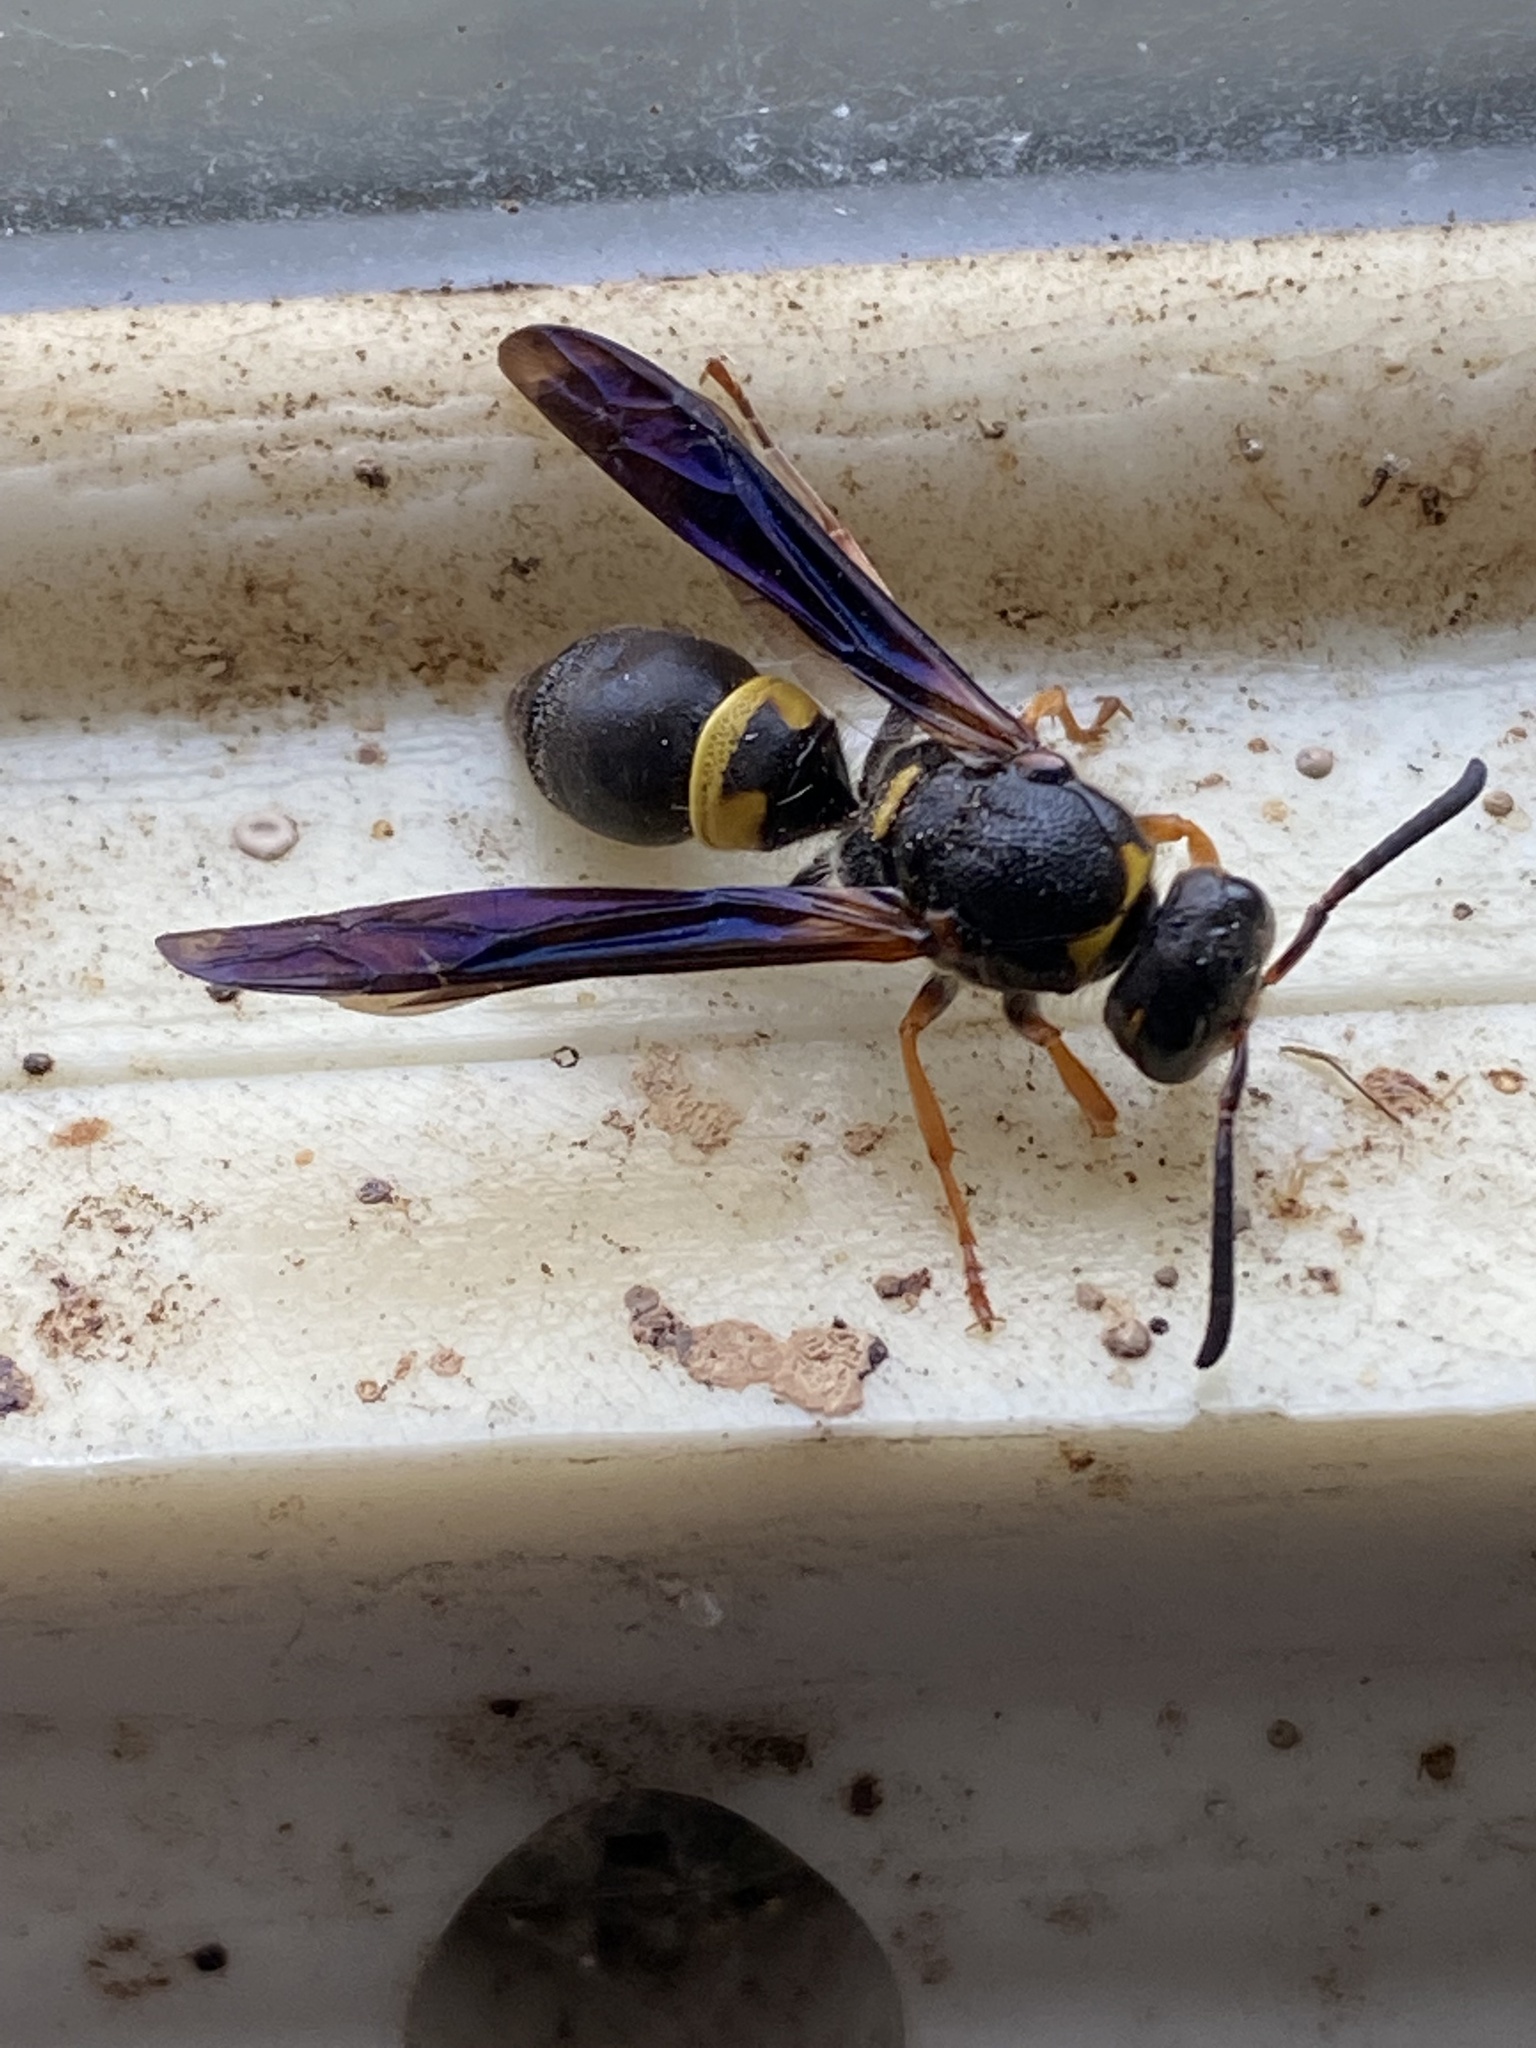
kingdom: Animalia
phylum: Arthropoda
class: Insecta
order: Hymenoptera
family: Vespidae
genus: Ancistrocerus
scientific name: Ancistrocerus unifasciatus
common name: One-banded mason wasp
